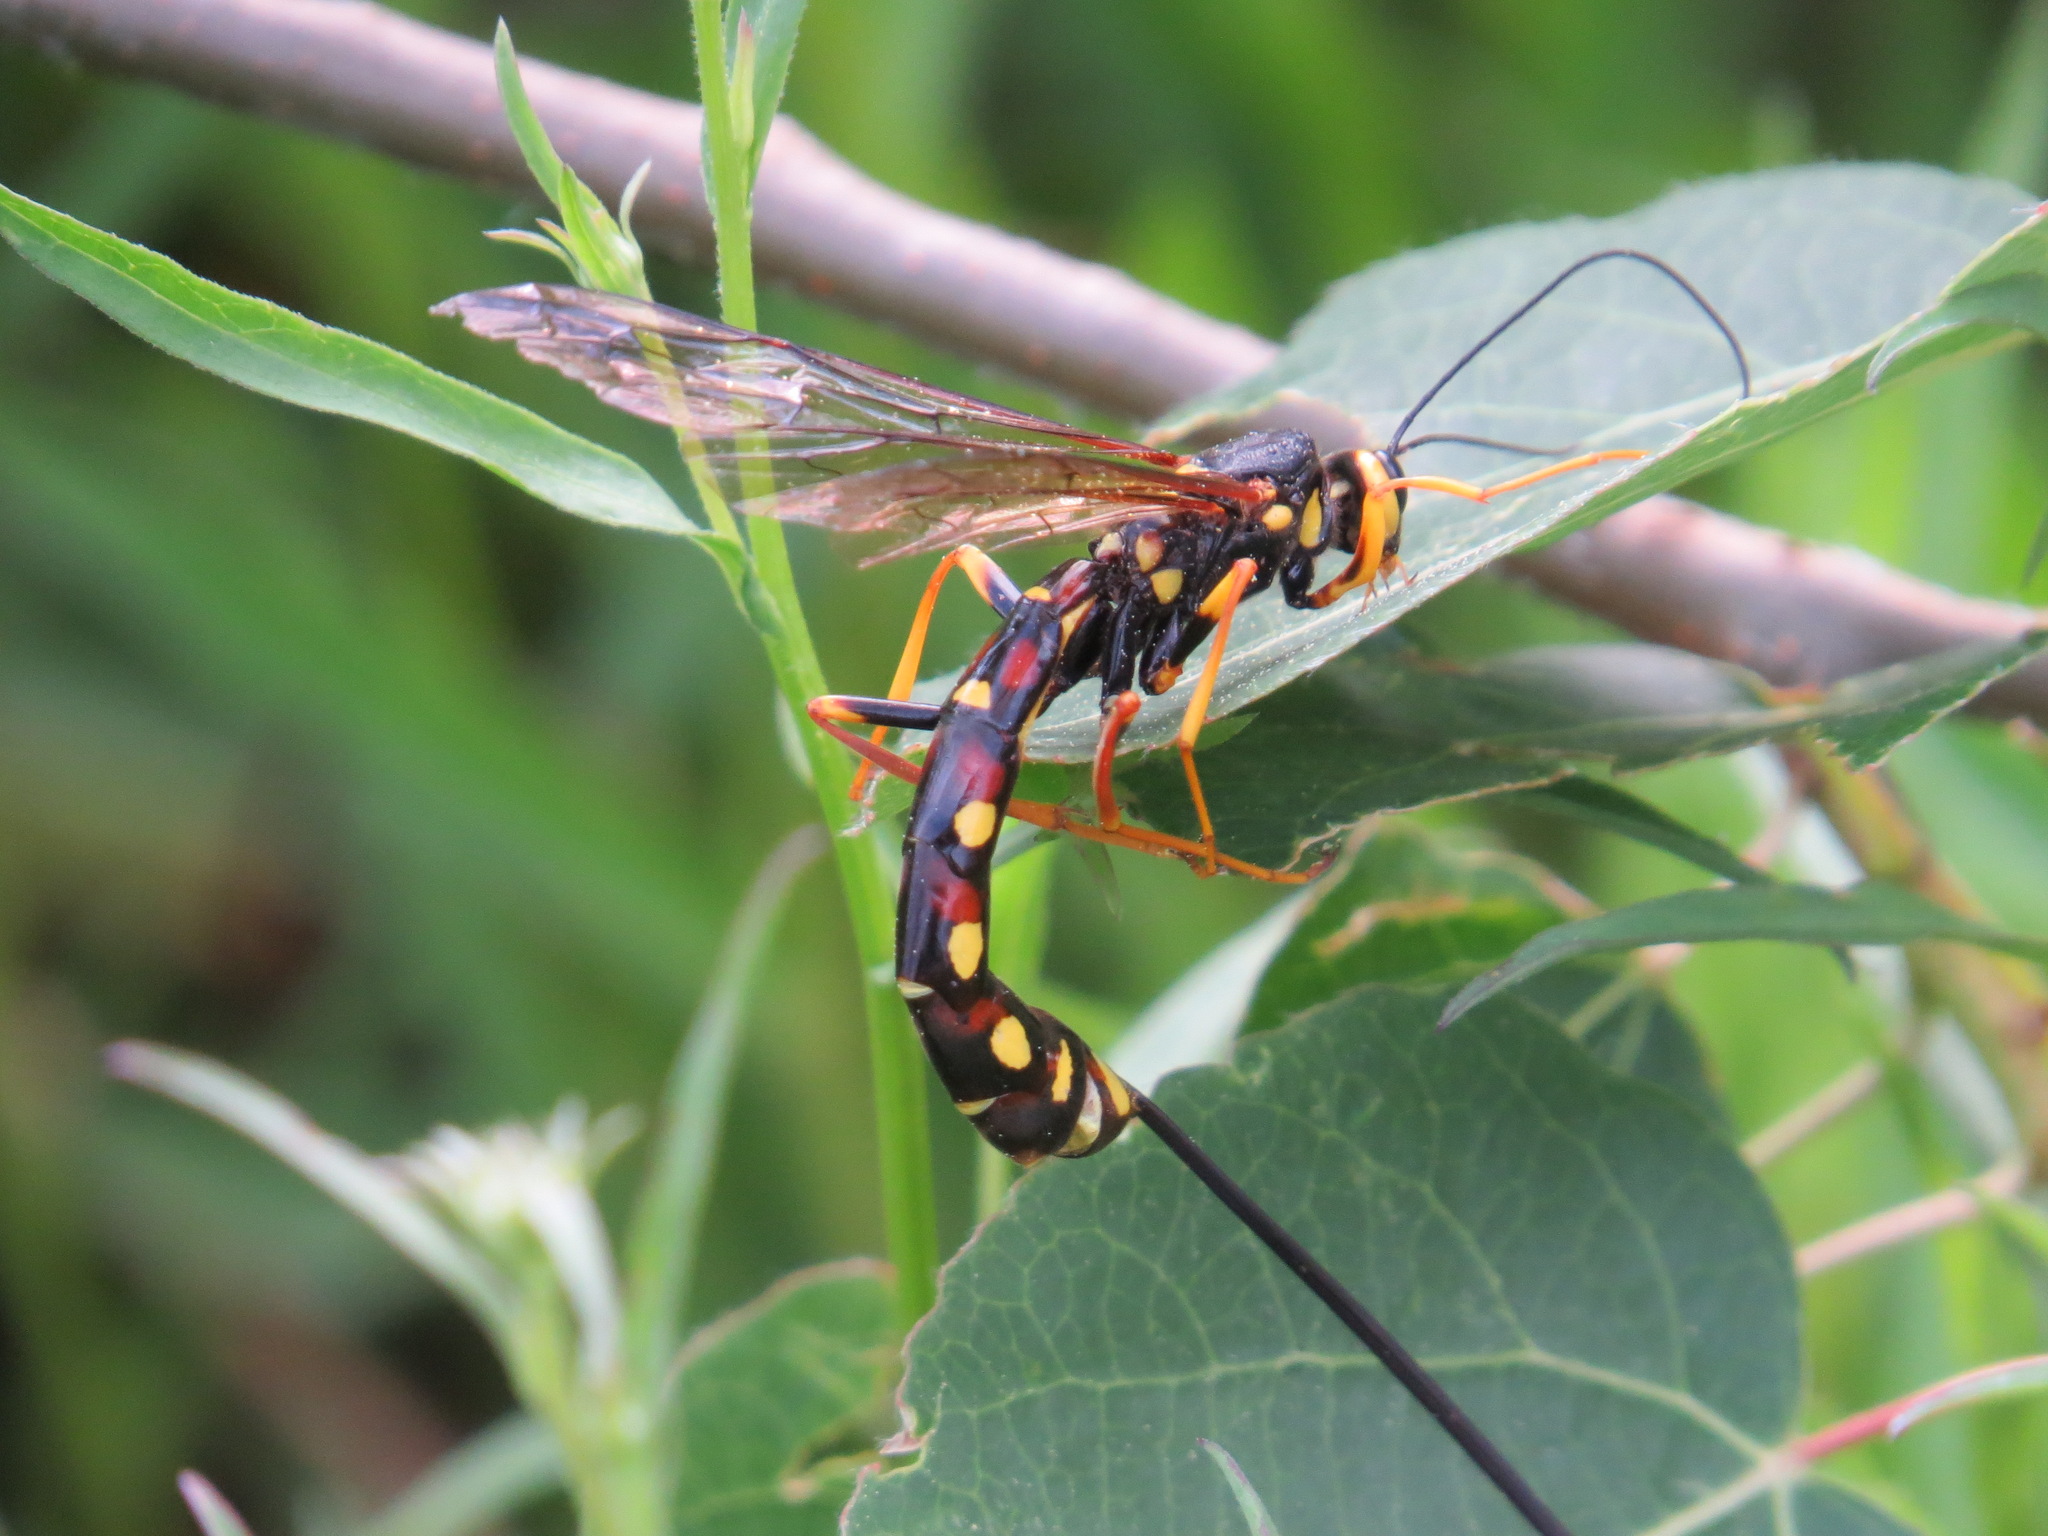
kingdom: Animalia
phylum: Arthropoda
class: Insecta
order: Hymenoptera
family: Ichneumonidae
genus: Megarhyssa
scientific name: Megarhyssa nortoni
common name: Norton's giant ichneumonid wasp
